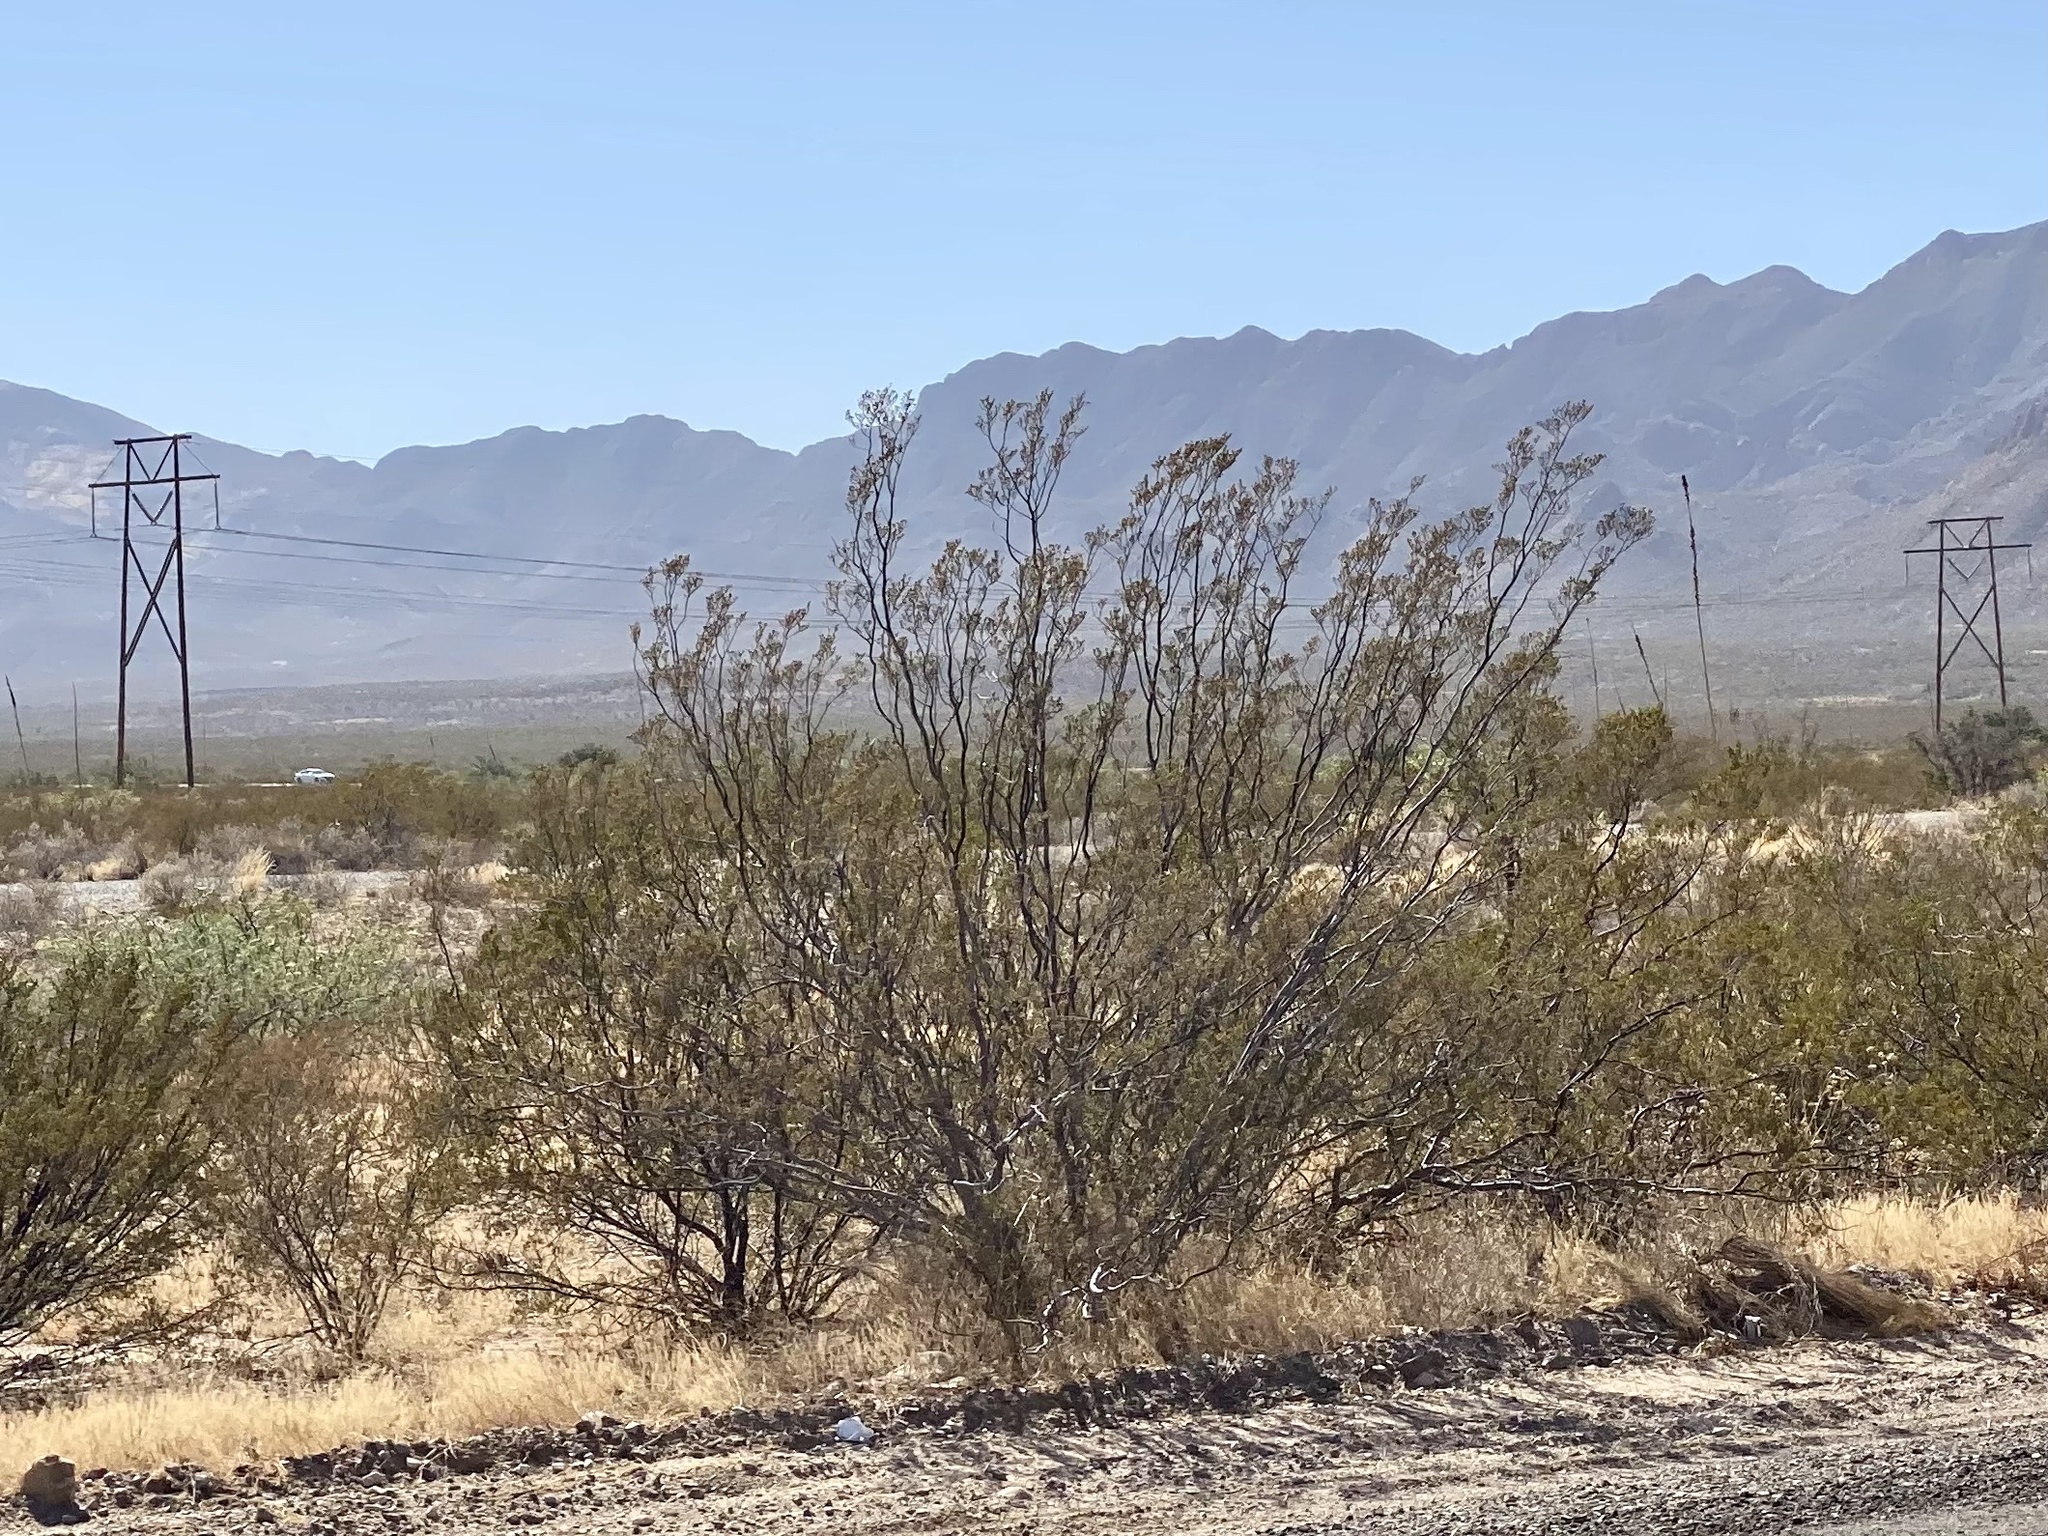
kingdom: Plantae
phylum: Tracheophyta
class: Magnoliopsida
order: Zygophyllales
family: Zygophyllaceae
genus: Larrea
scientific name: Larrea tridentata
